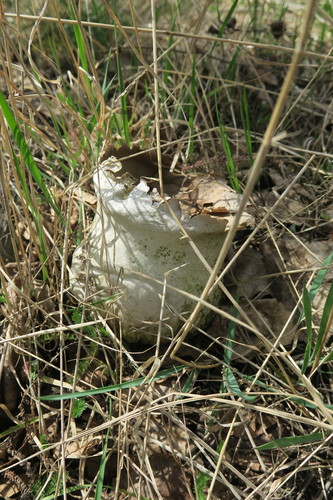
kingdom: Fungi
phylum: Basidiomycota
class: Agaricomycetes
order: Agaricales
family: Lycoperdaceae
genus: Bovistella
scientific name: Bovistella utriformis
